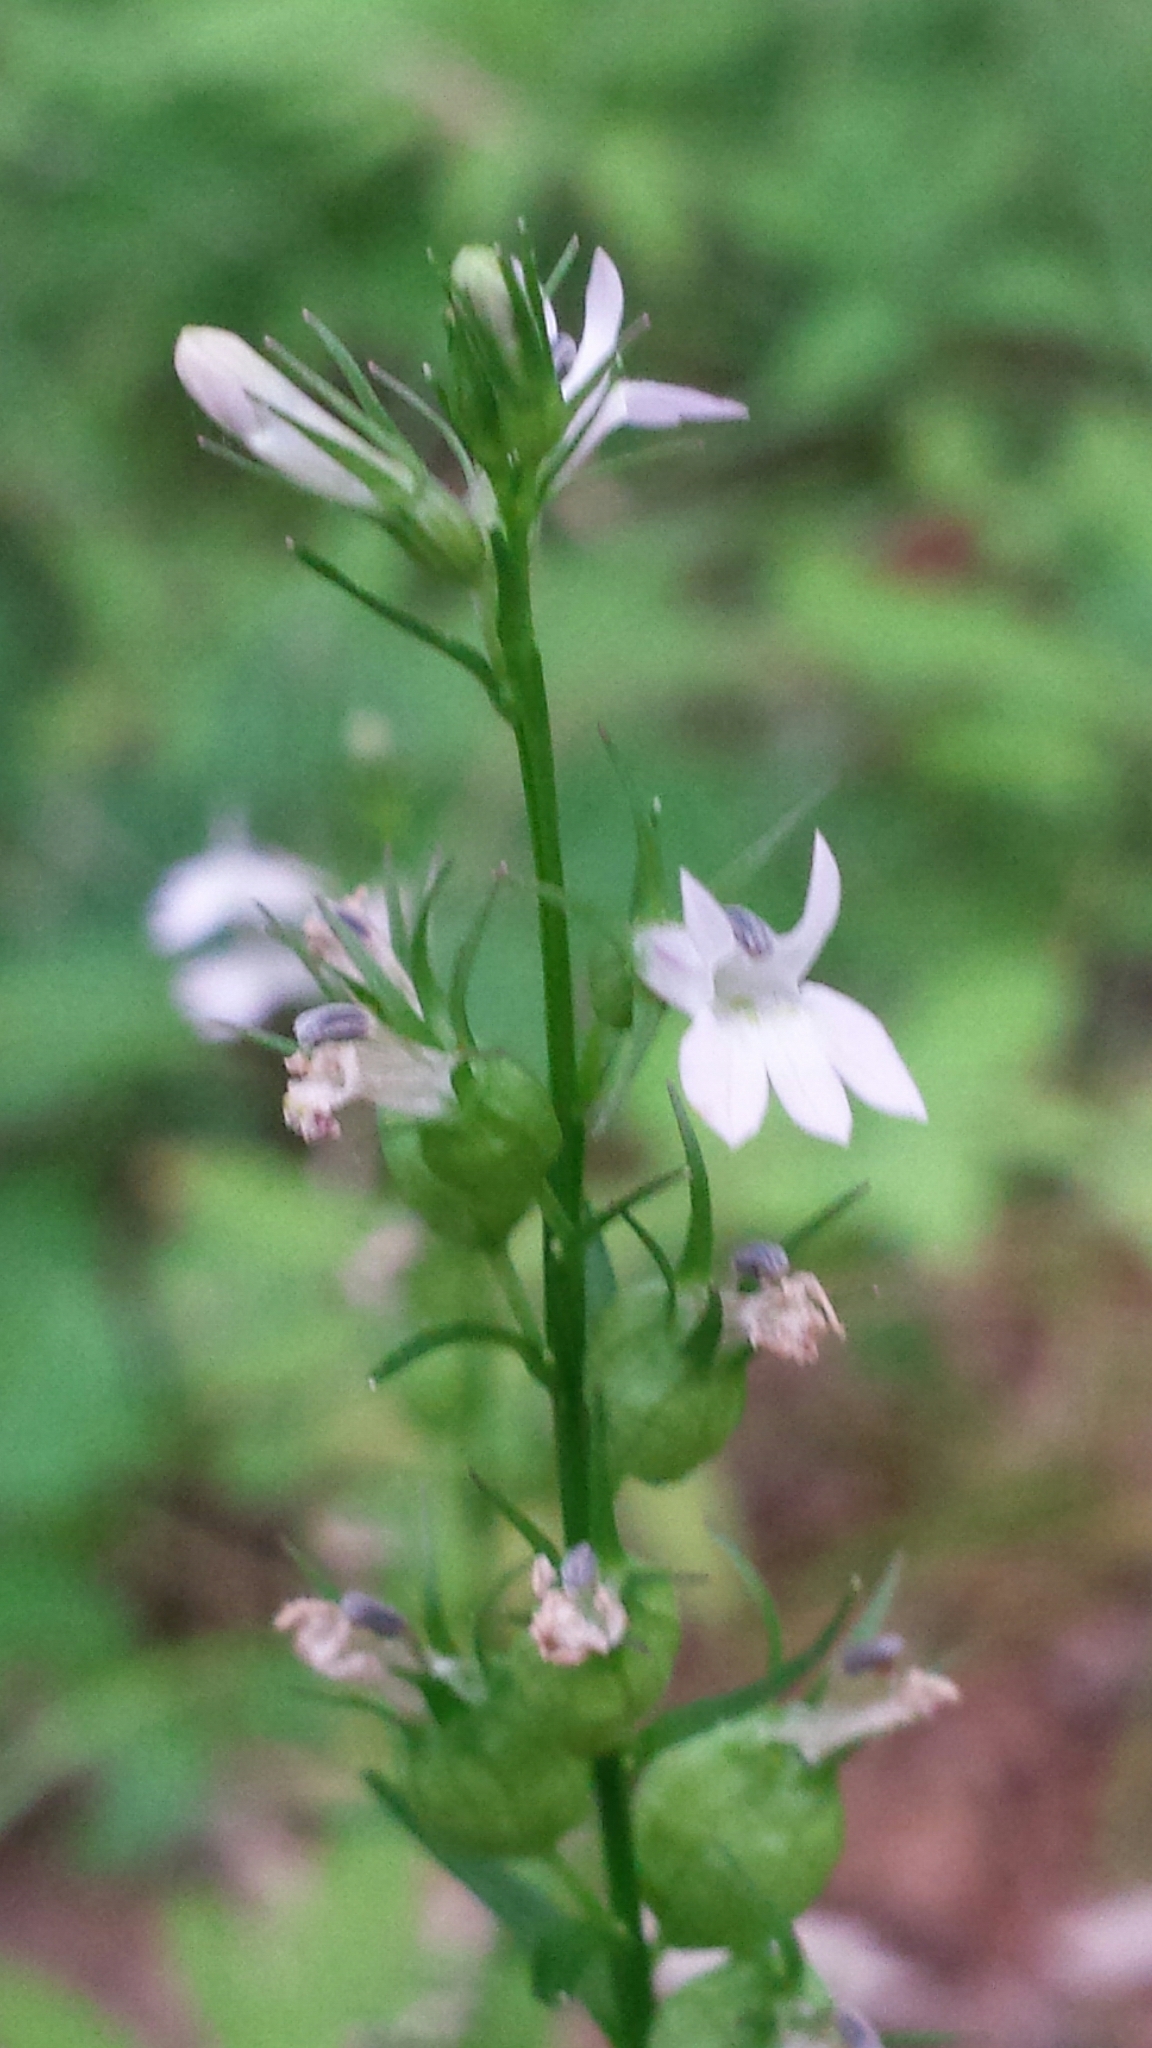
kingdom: Plantae
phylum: Tracheophyta
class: Magnoliopsida
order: Asterales
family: Campanulaceae
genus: Lobelia
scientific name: Lobelia inflata
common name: Indian tobacco
